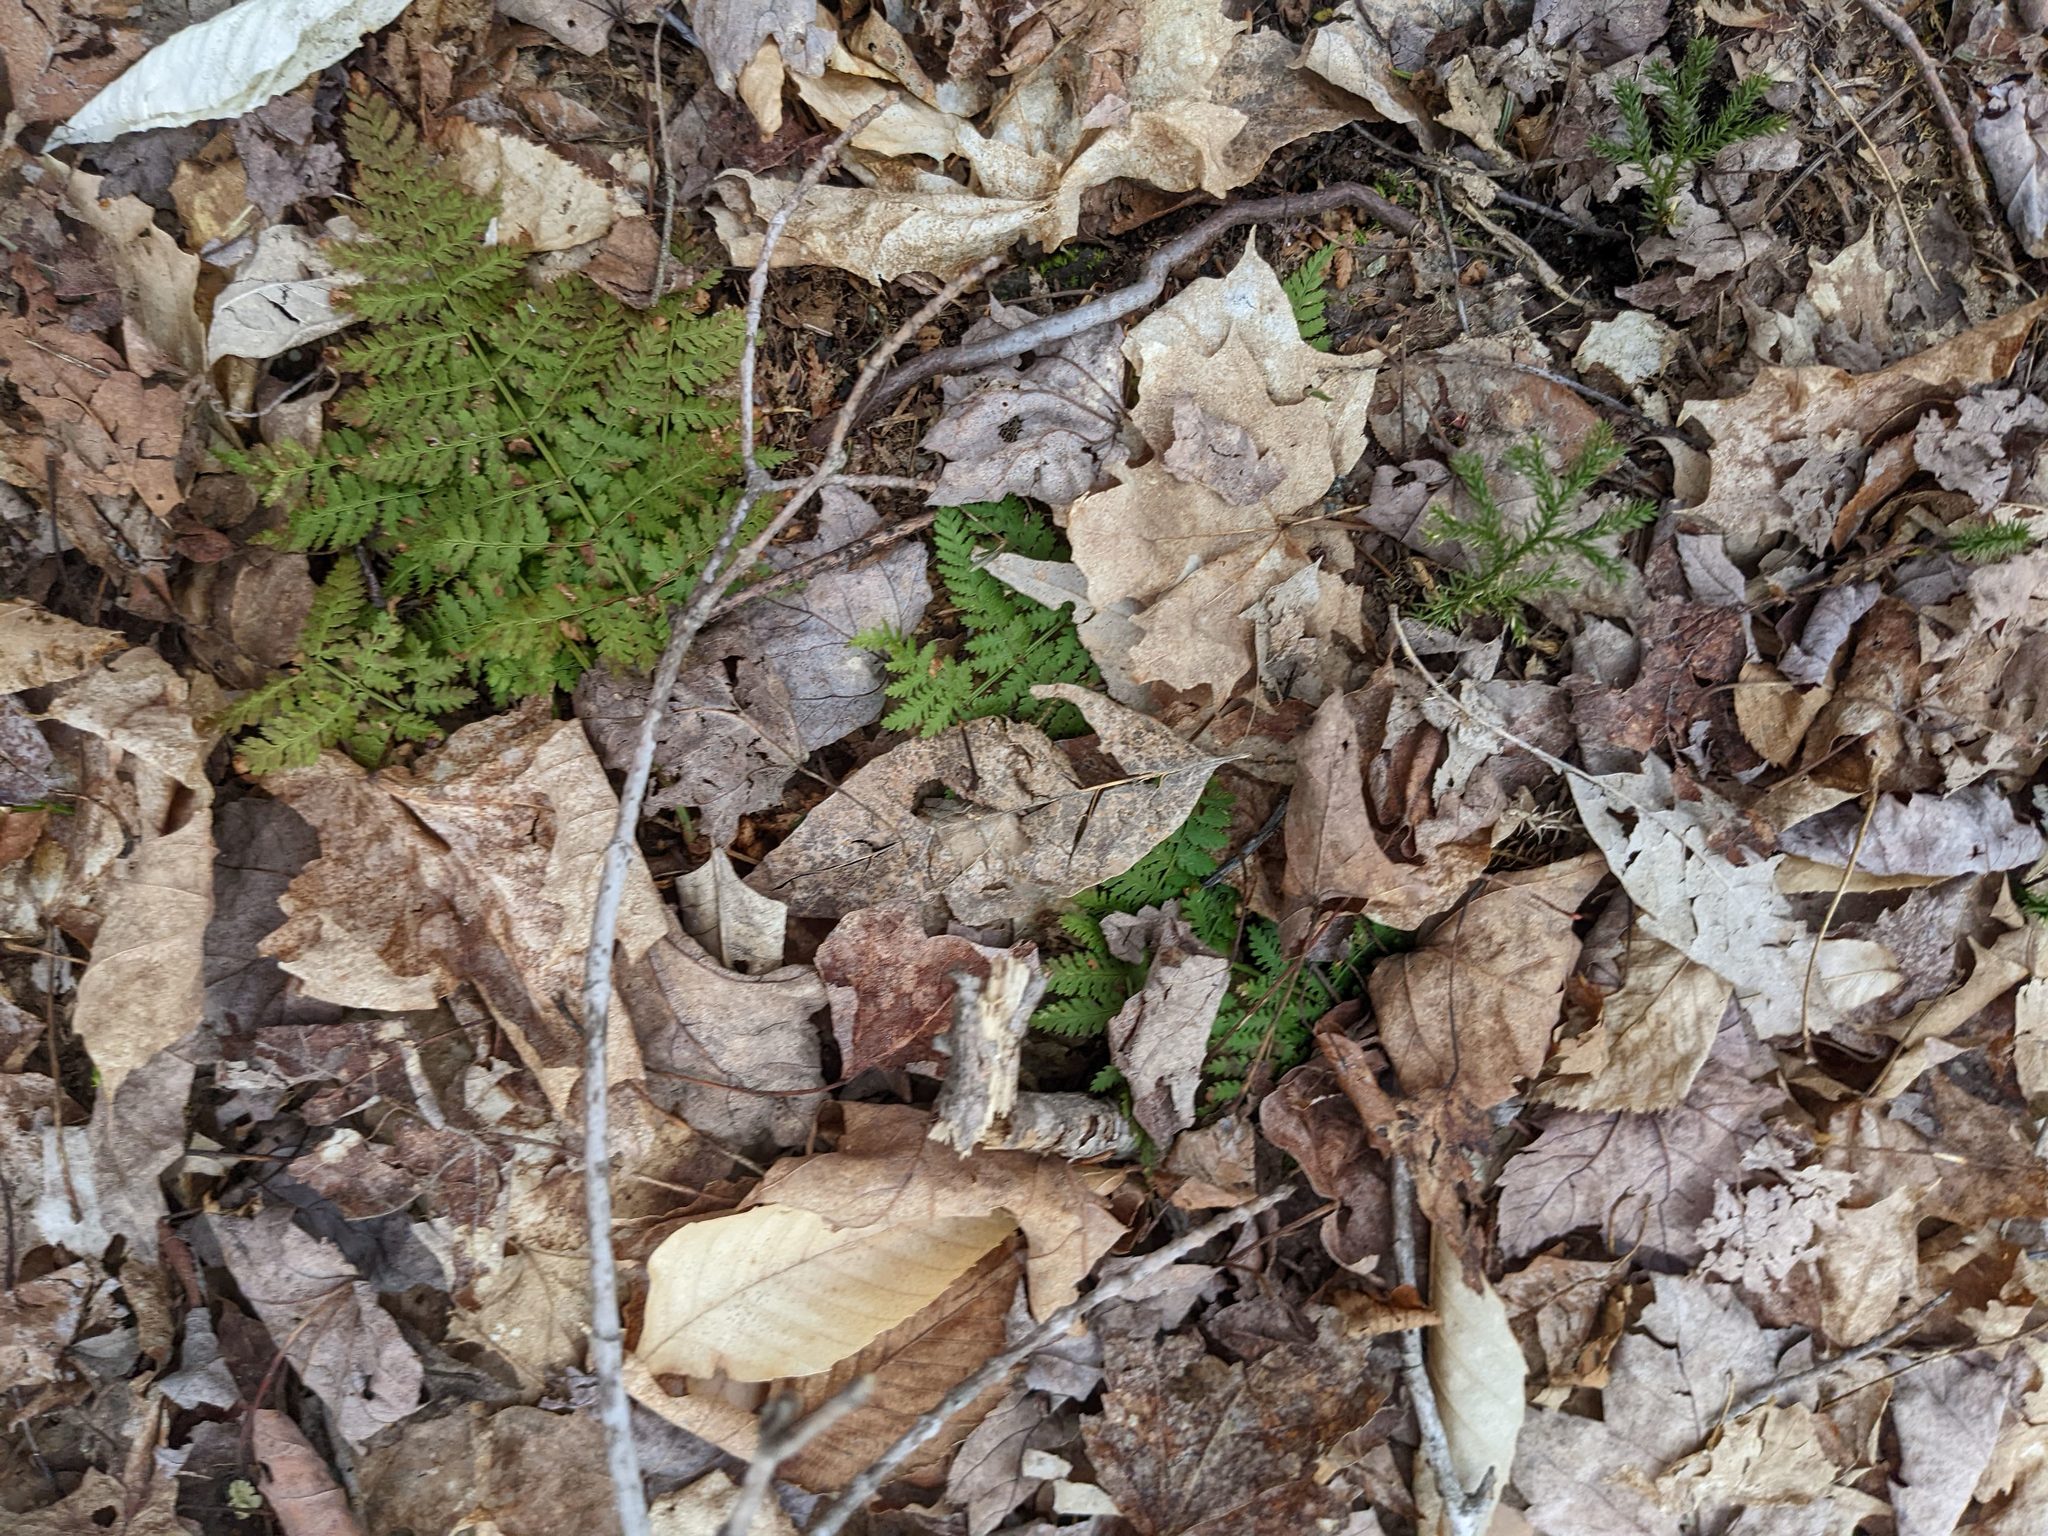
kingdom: Plantae
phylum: Tracheophyta
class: Polypodiopsida
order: Polypodiales
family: Dryopteridaceae
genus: Dryopteris
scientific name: Dryopteris intermedia
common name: Evergreen wood fern
